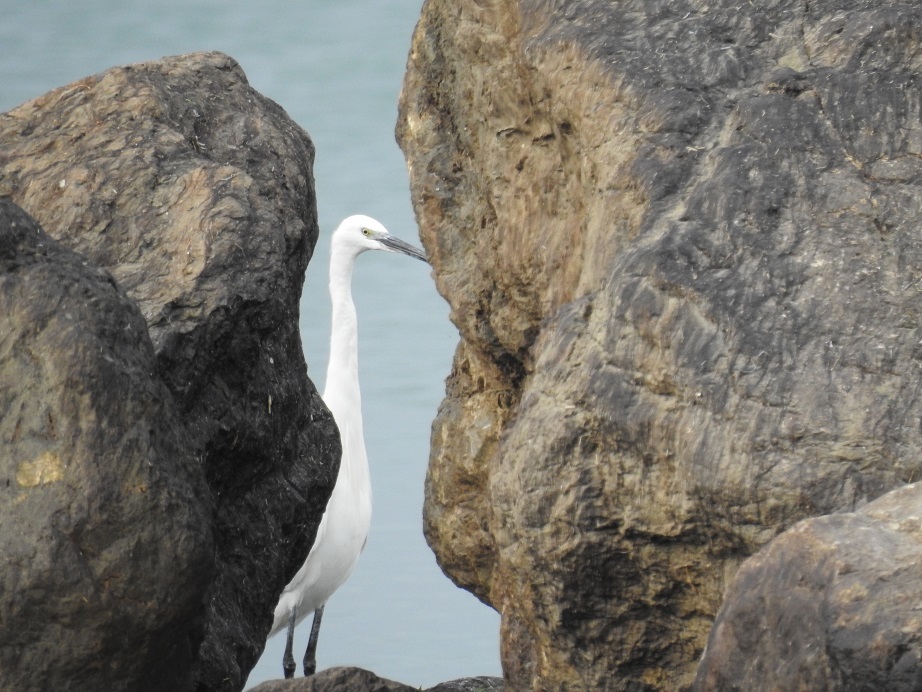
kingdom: Animalia
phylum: Chordata
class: Aves
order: Pelecaniformes
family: Ardeidae
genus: Egretta
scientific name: Egretta garzetta
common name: Little egret
